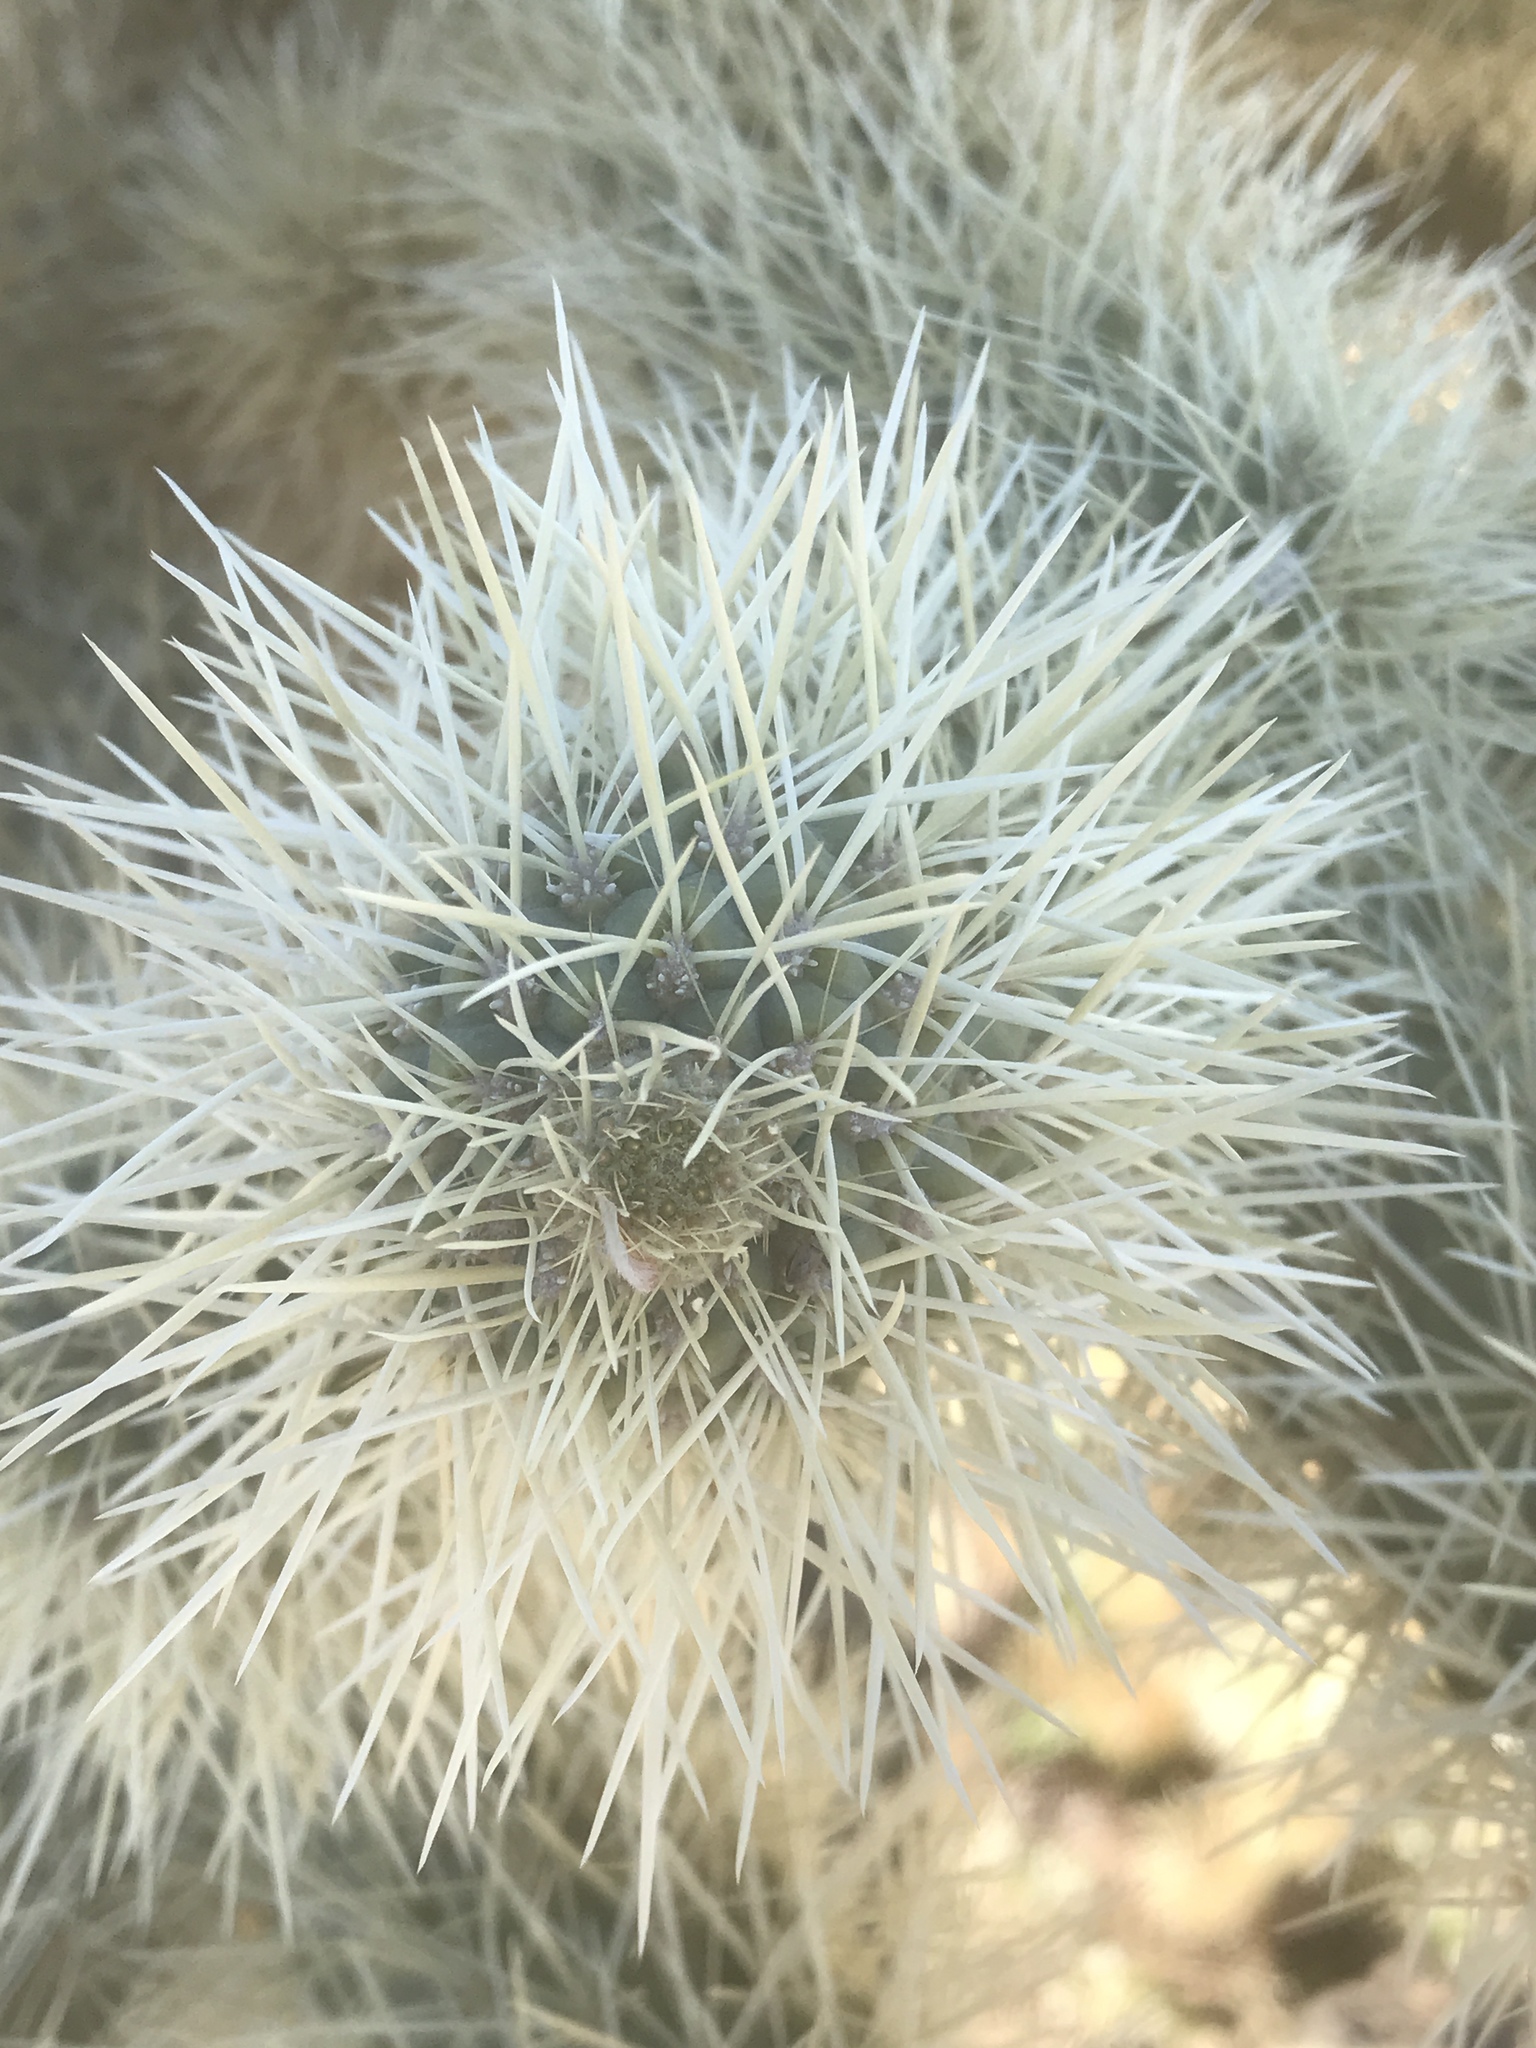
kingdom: Plantae
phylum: Tracheophyta
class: Magnoliopsida
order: Caryophyllales
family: Cactaceae
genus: Cylindropuntia
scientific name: Cylindropuntia fosbergii
